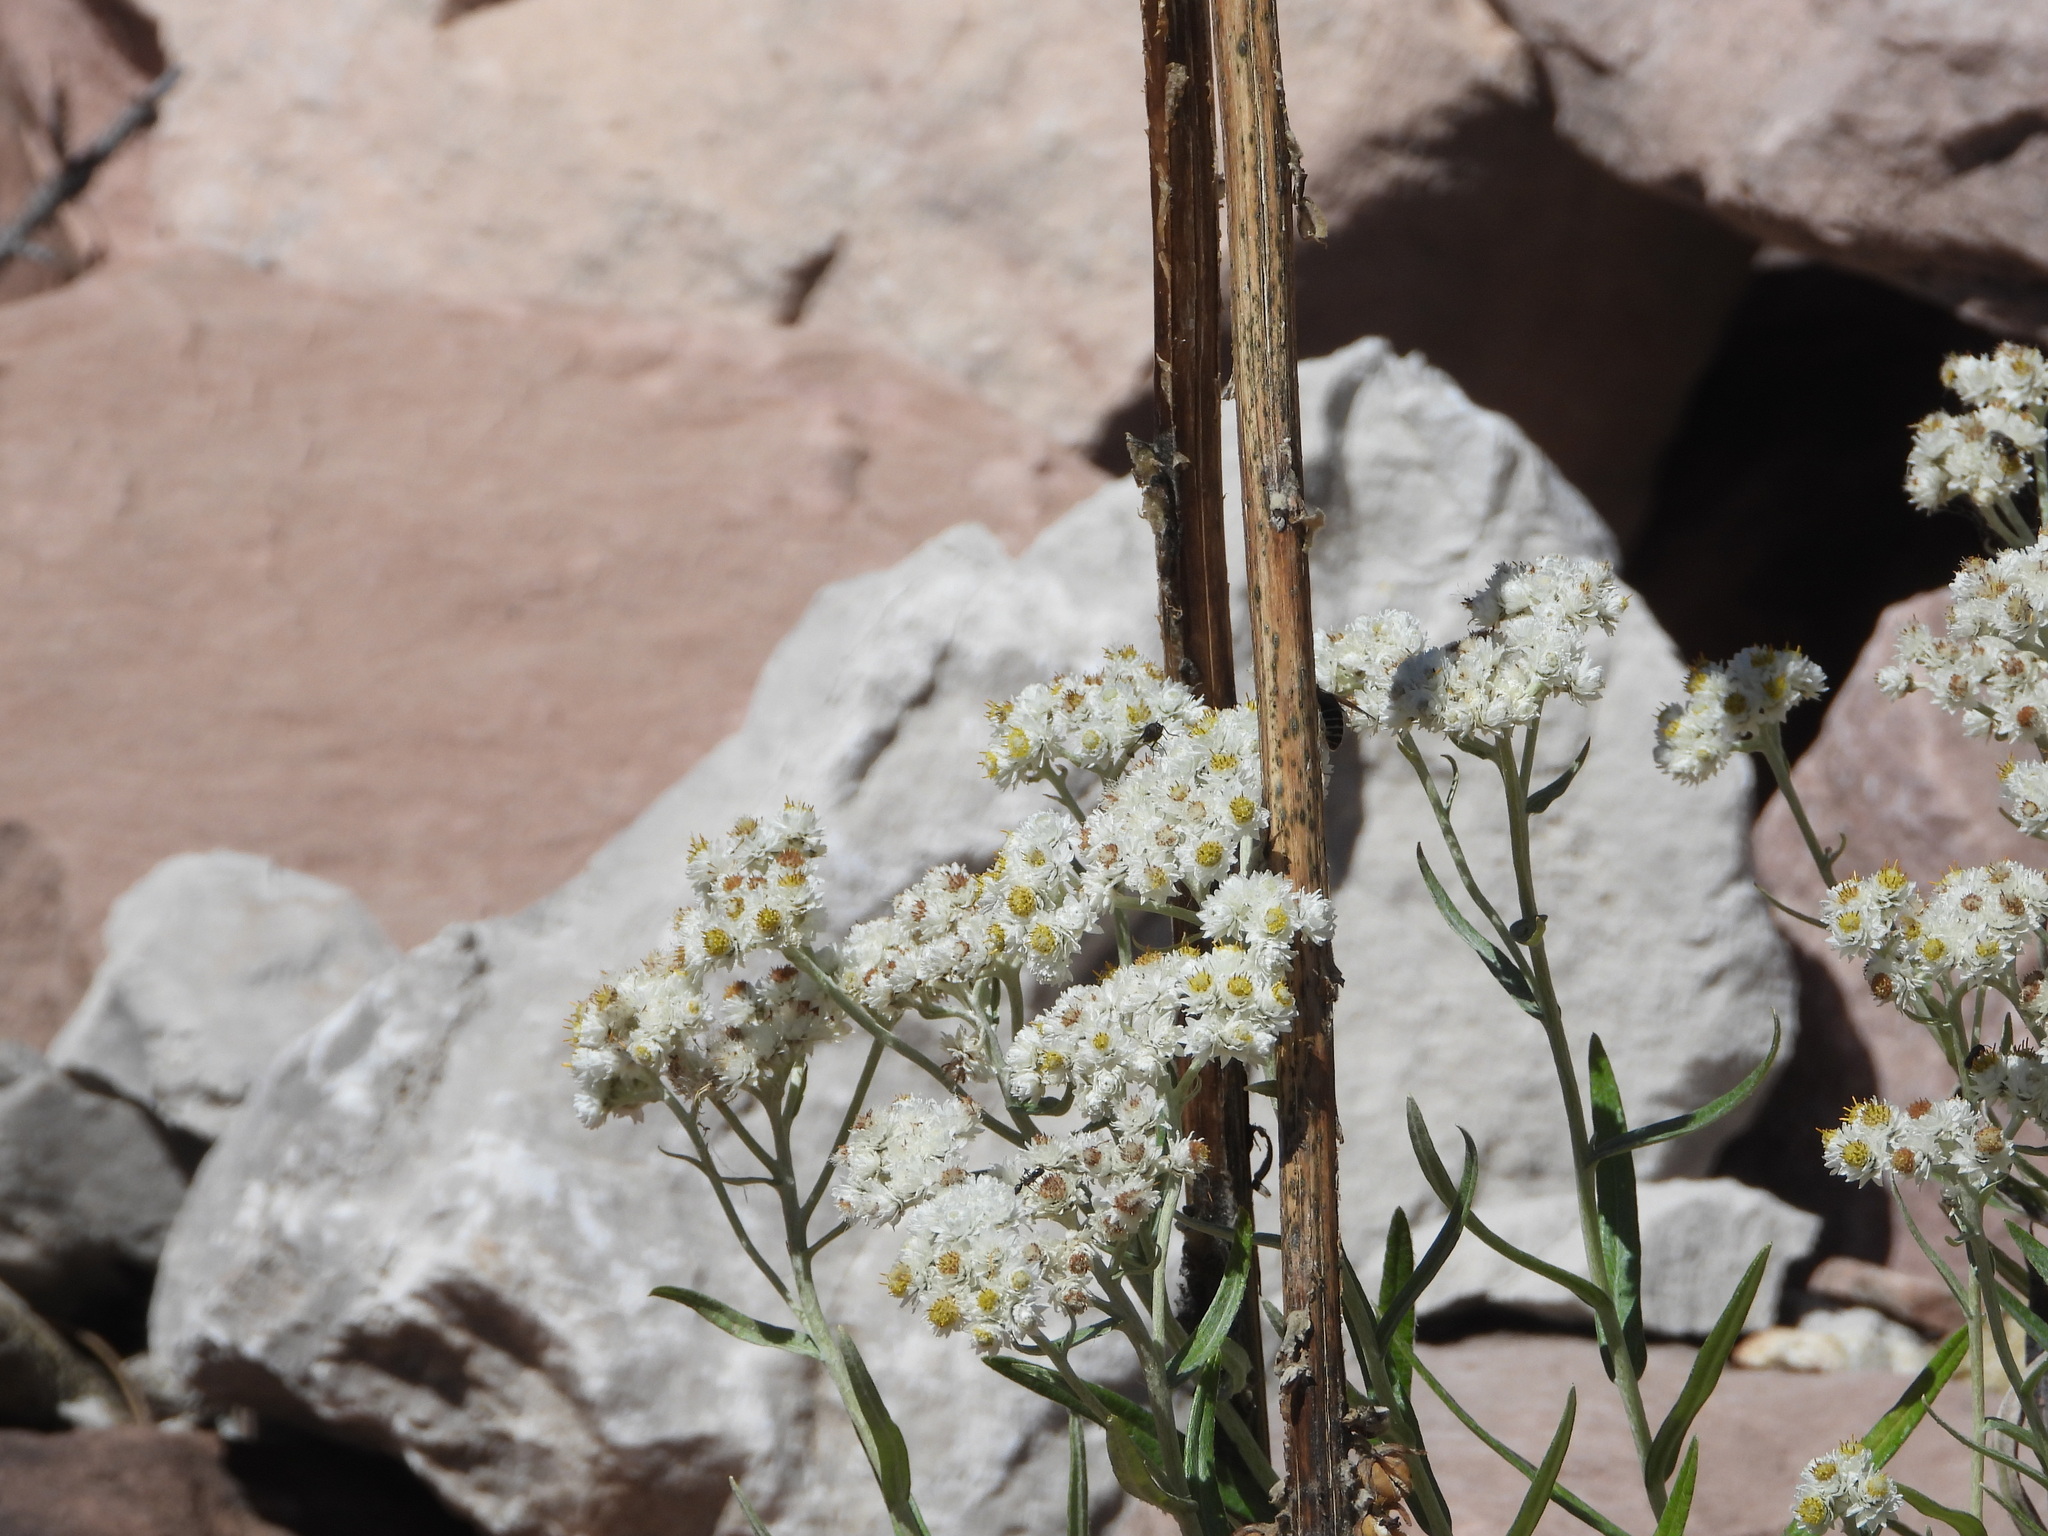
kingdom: Plantae
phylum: Tracheophyta
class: Magnoliopsida
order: Asterales
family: Asteraceae
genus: Anaphalis
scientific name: Anaphalis margaritacea
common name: Pearly everlasting
